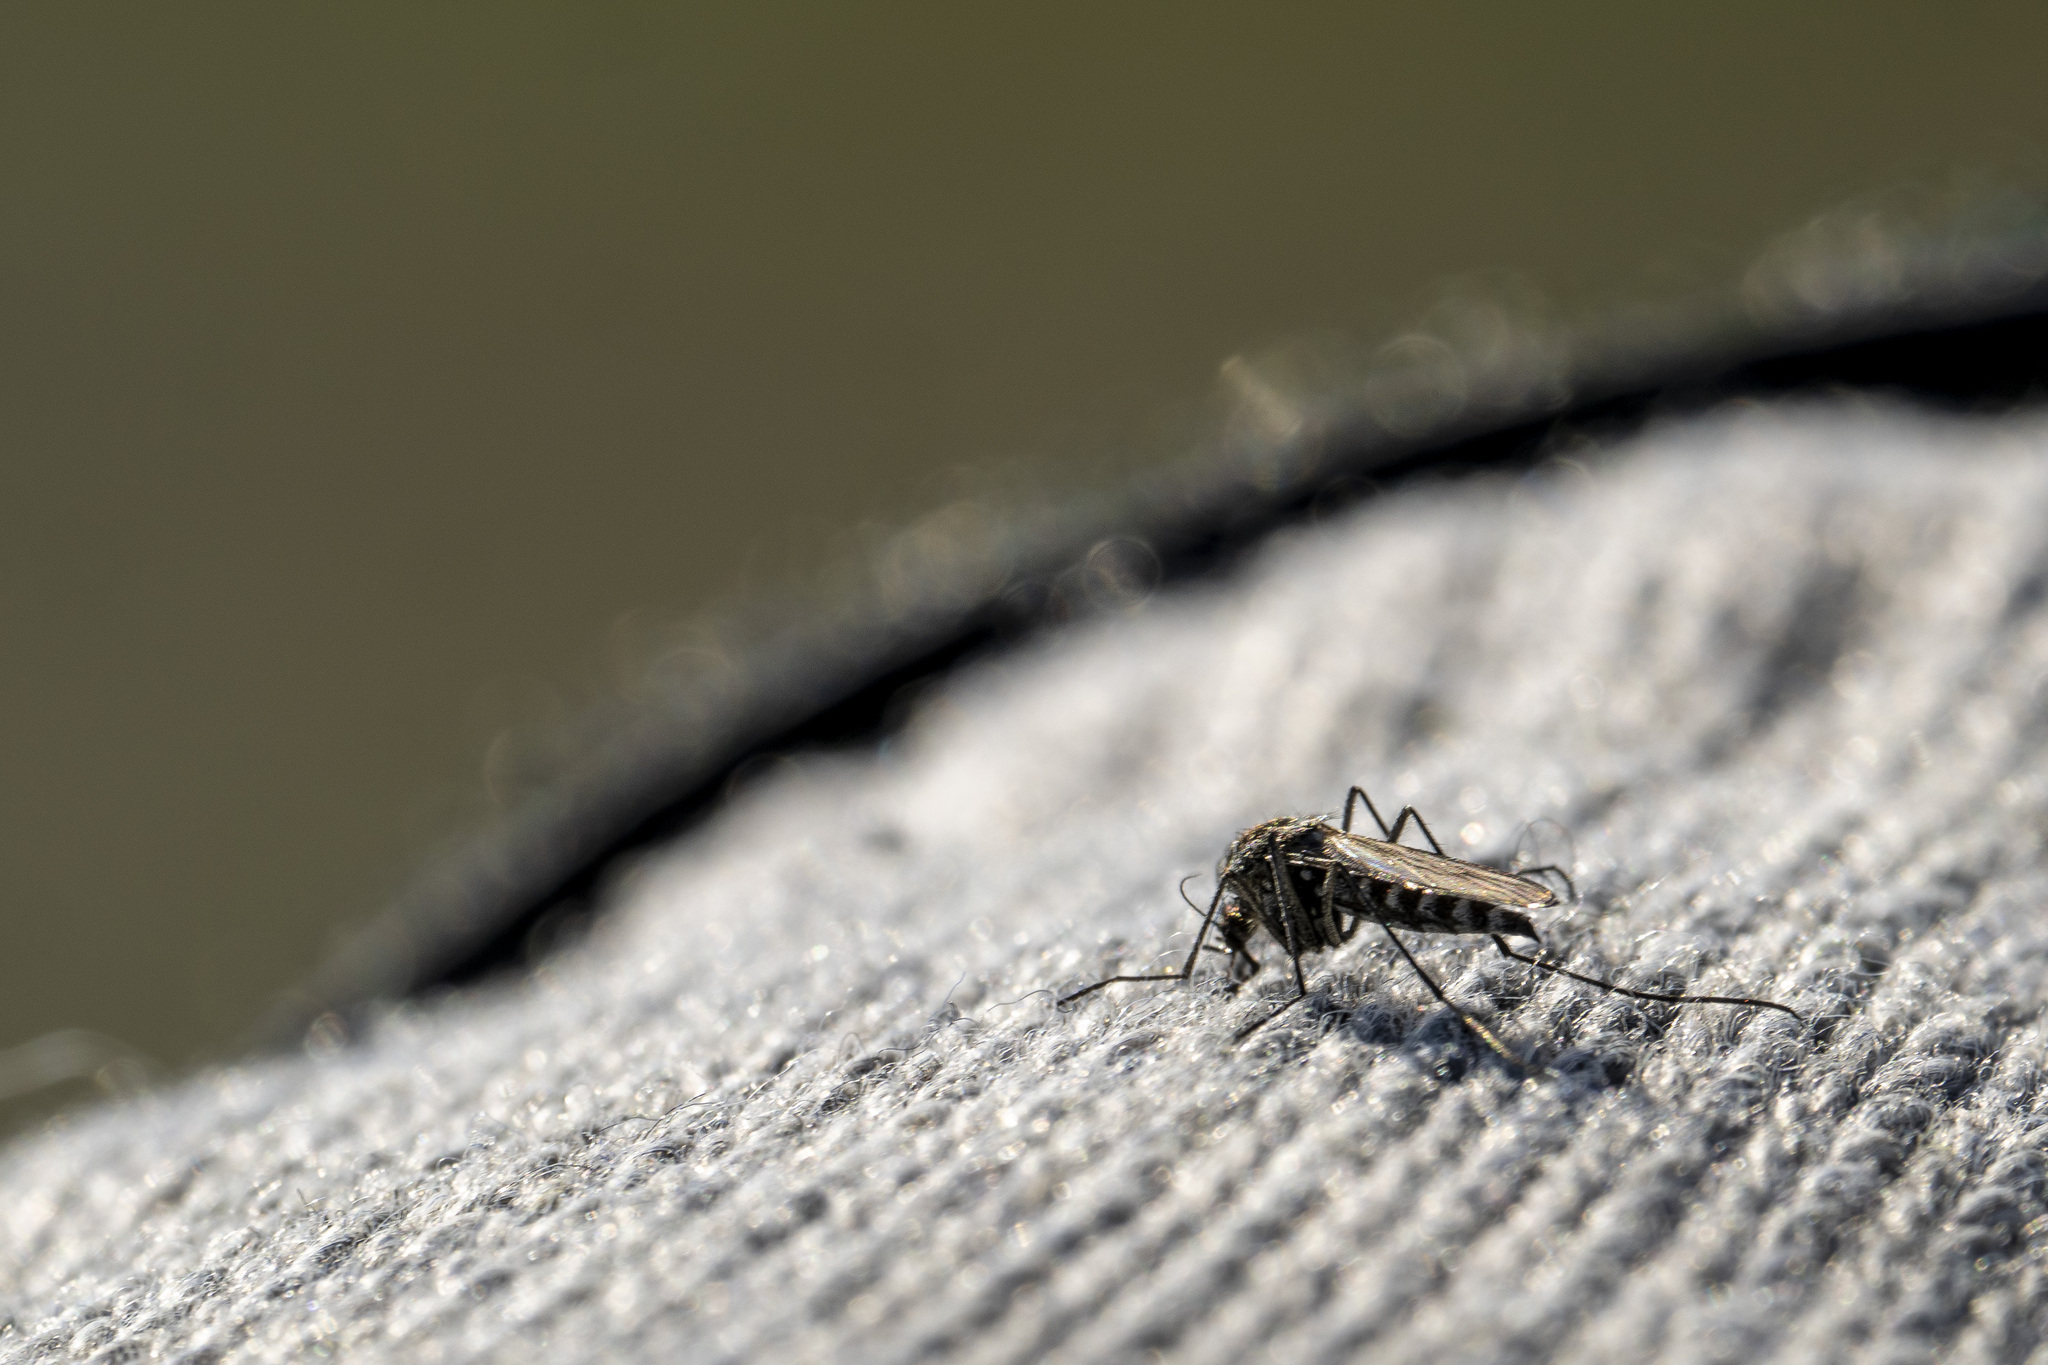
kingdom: Animalia
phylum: Arthropoda
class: Insecta
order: Diptera
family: Culicidae
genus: Aedes
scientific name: Aedes nigripes
